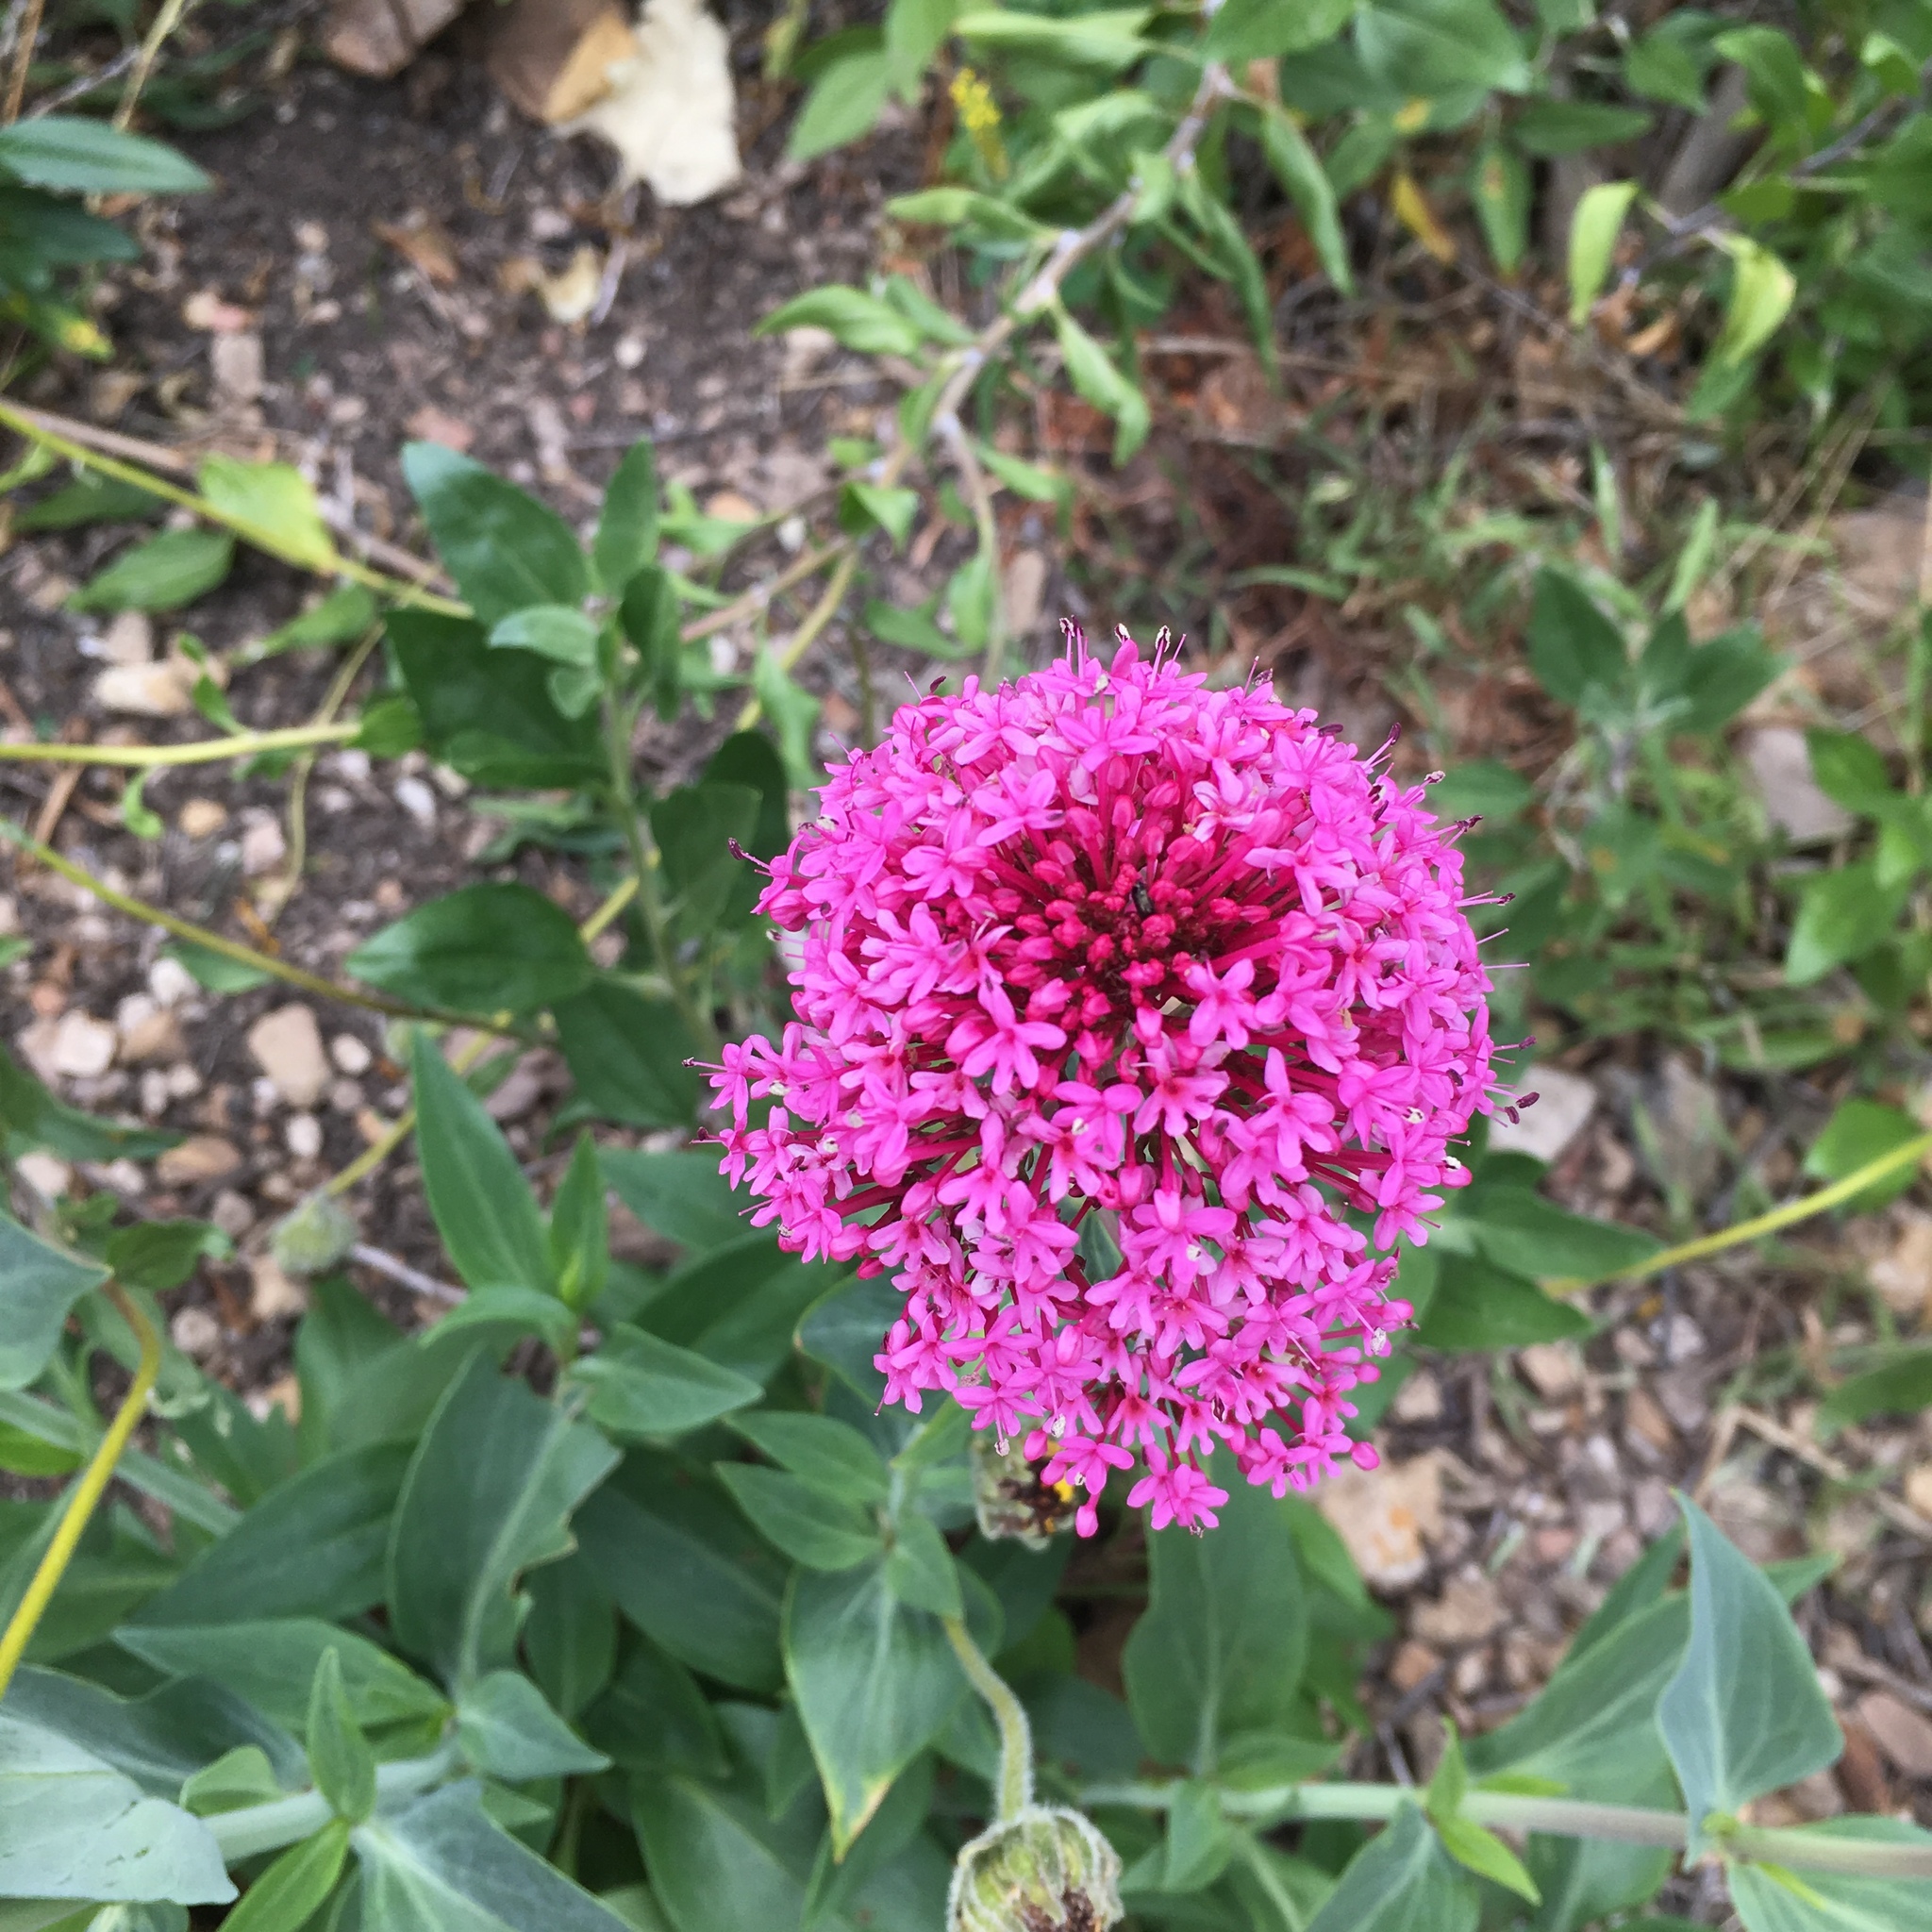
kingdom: Plantae
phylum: Tracheophyta
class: Magnoliopsida
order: Dipsacales
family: Caprifoliaceae
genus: Centranthus
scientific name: Centranthus ruber
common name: Red valerian
